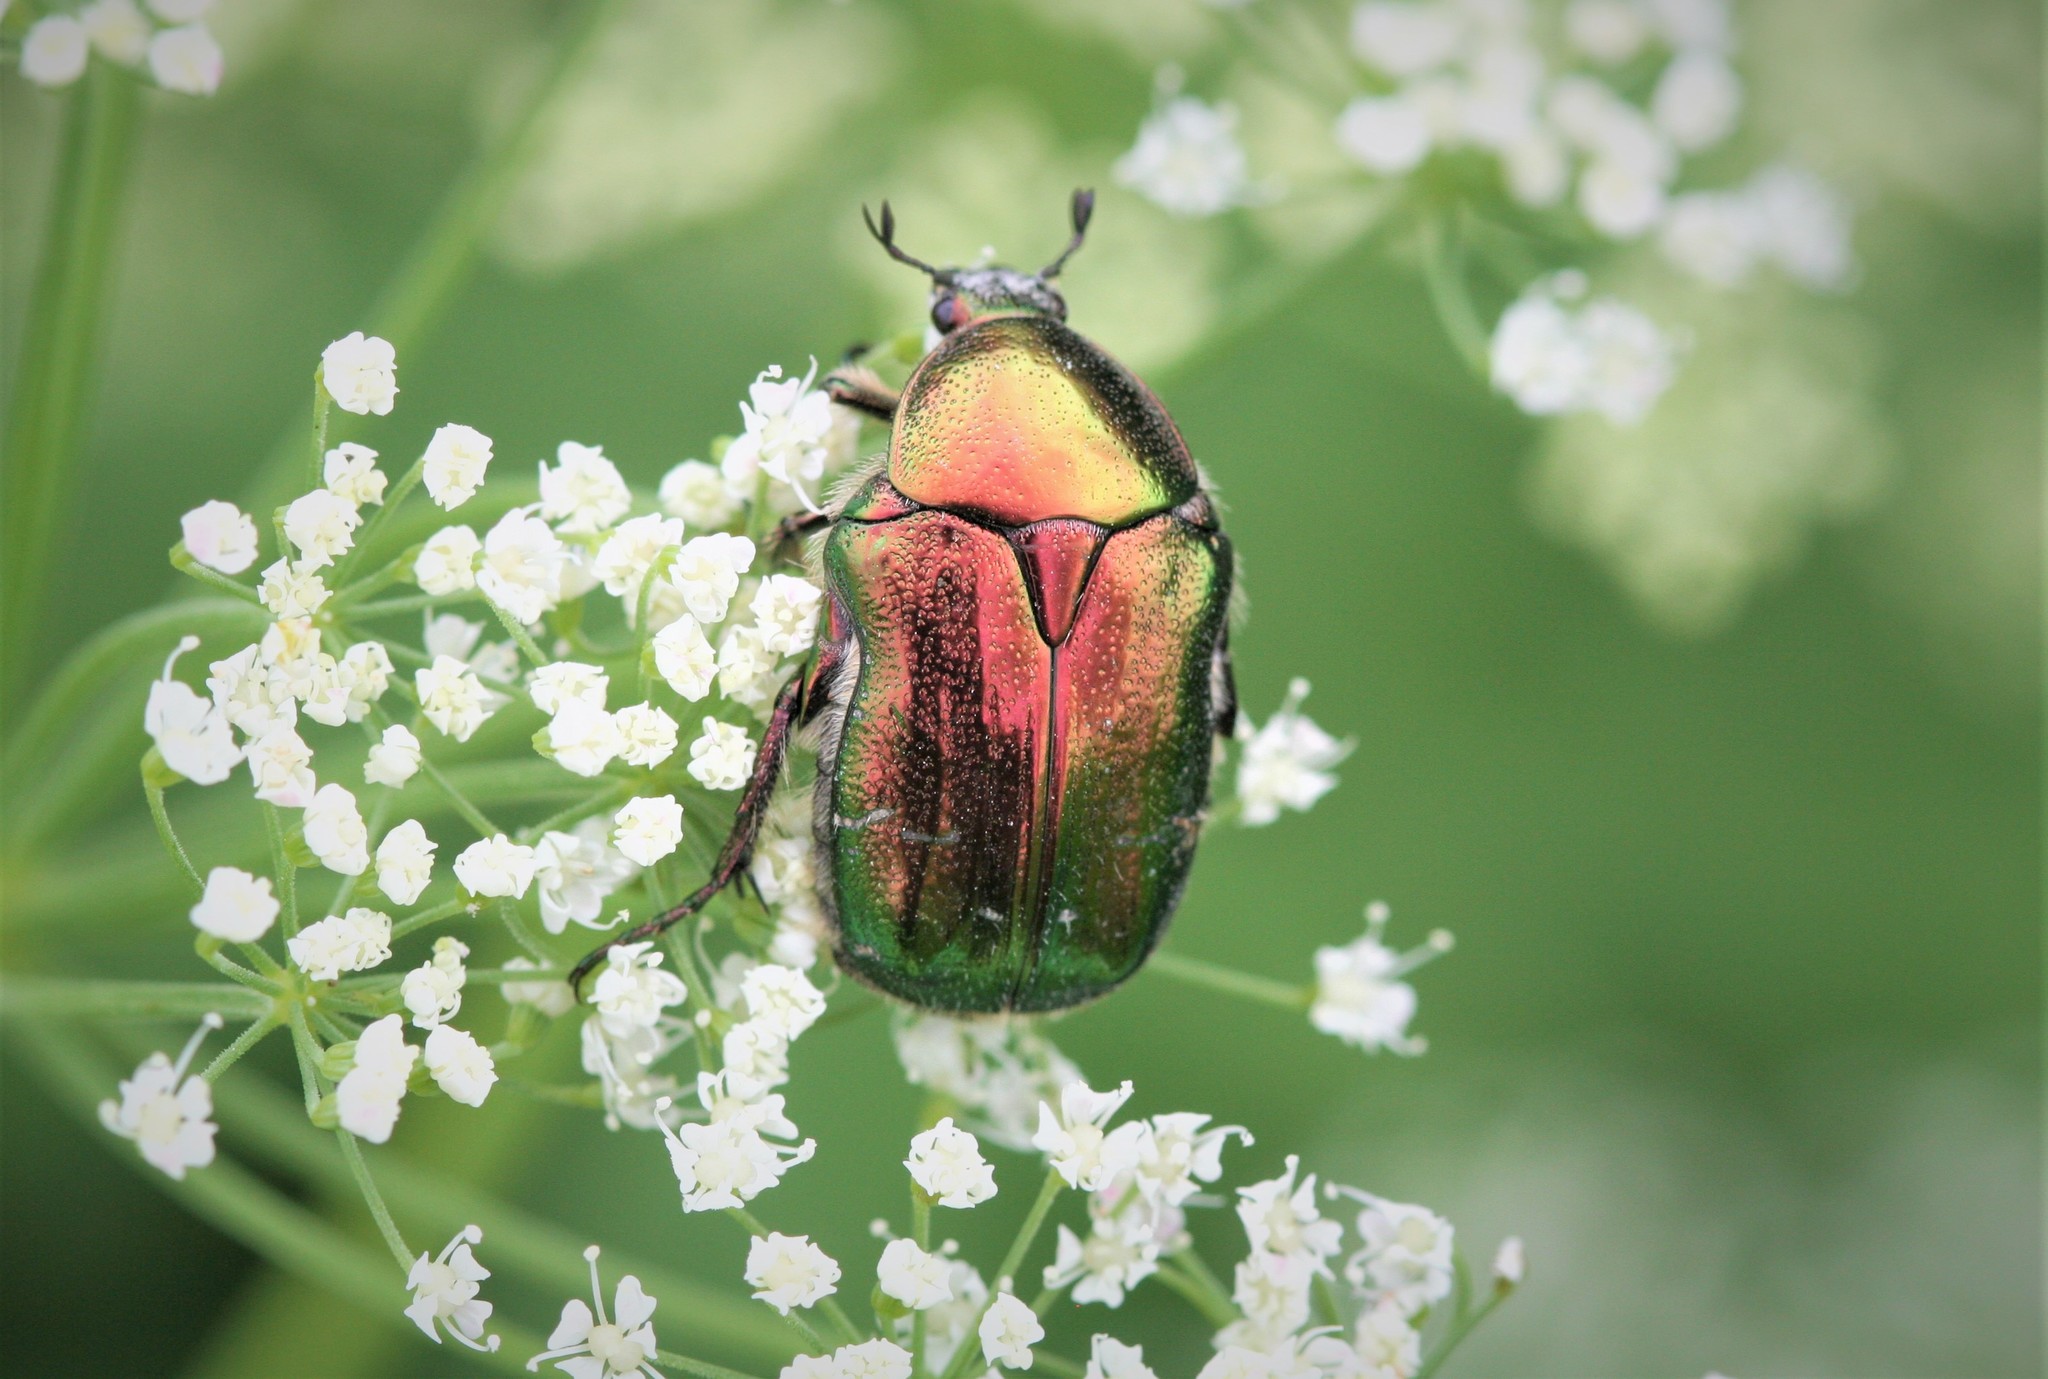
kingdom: Animalia
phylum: Arthropoda
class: Insecta
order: Coleoptera
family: Scarabaeidae
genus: Cetonia
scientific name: Cetonia aurata
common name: Rose chafer
